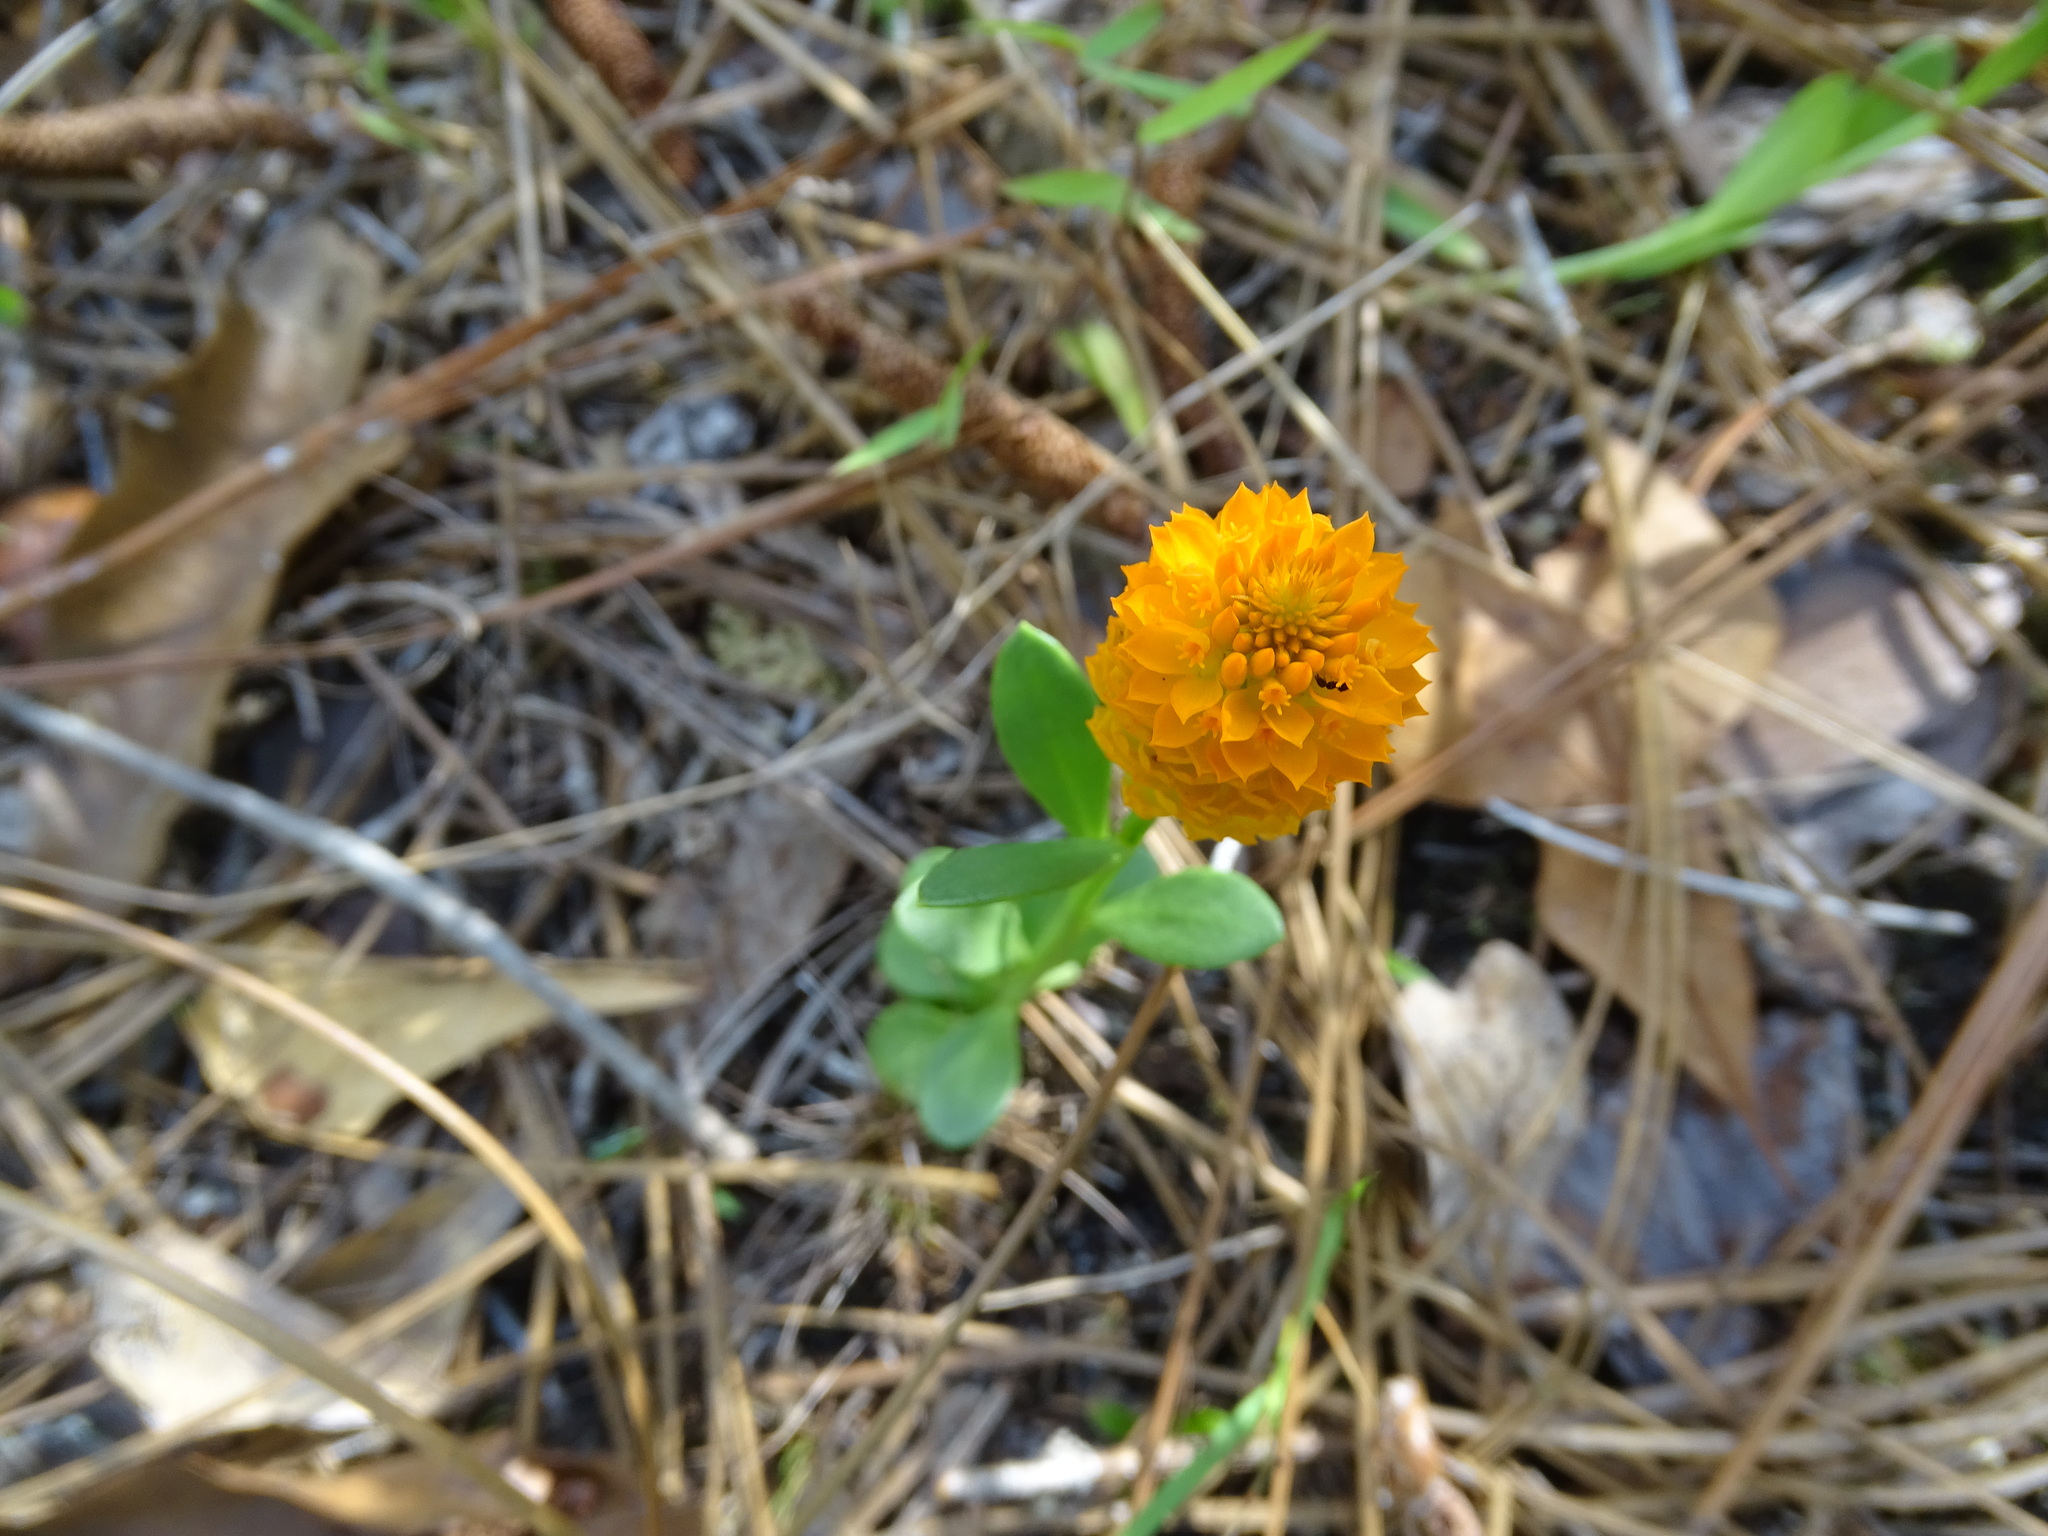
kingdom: Plantae
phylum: Tracheophyta
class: Magnoliopsida
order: Fabales
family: Polygalaceae
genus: Polygala
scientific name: Polygala lutea
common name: Orange milkwort
